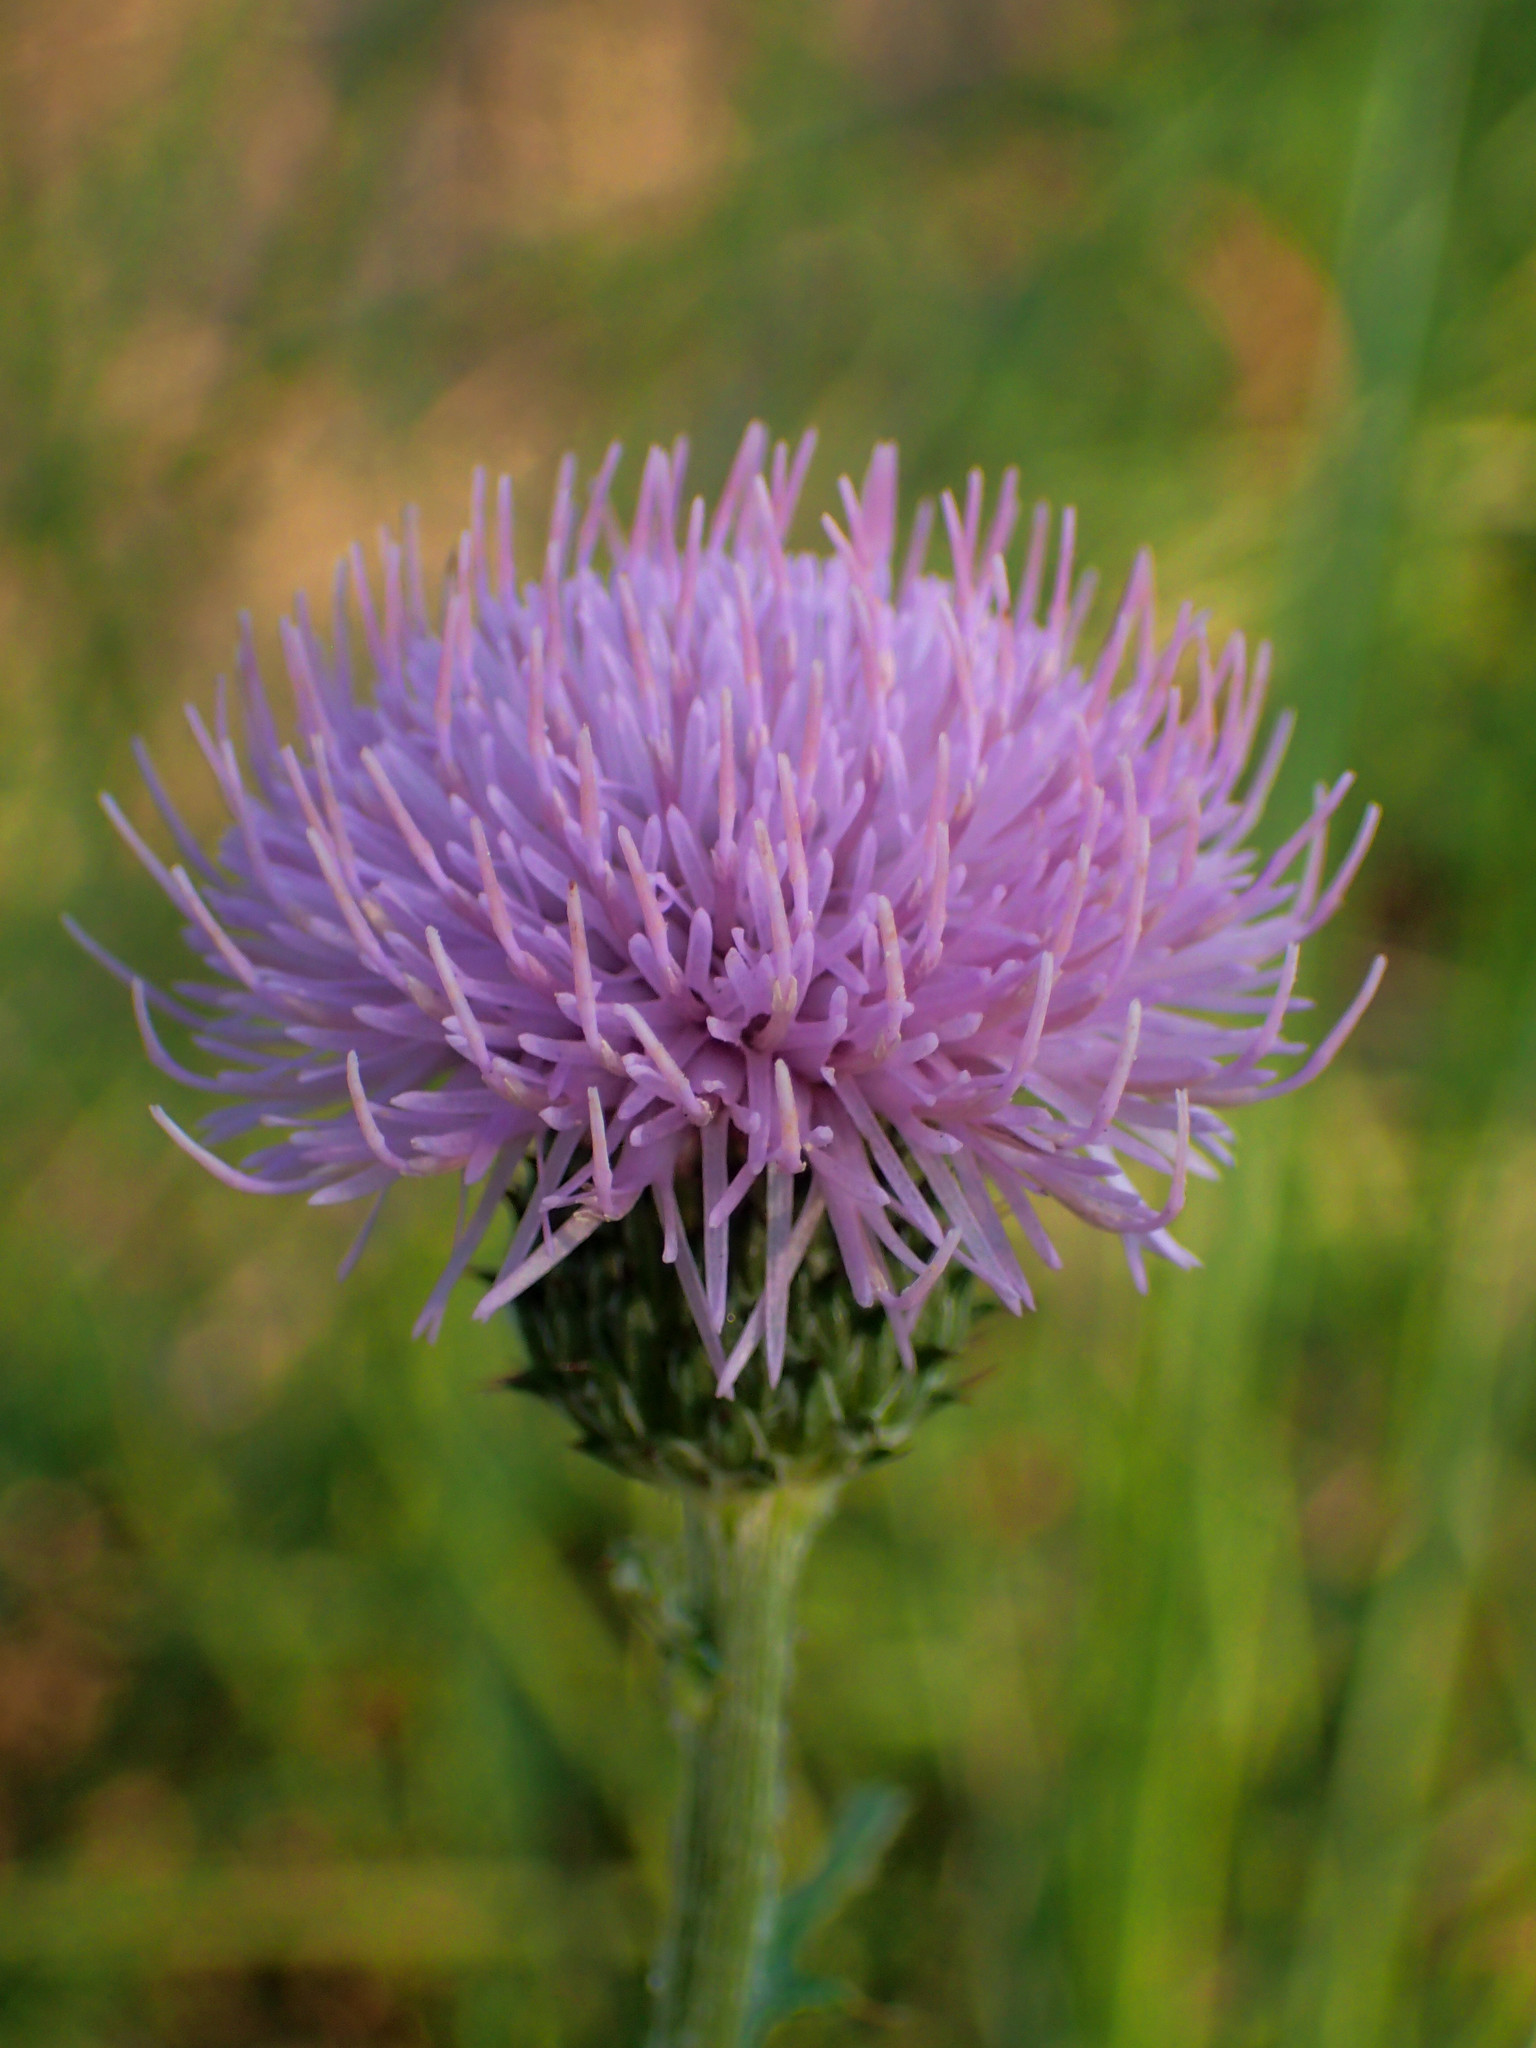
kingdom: Plantae
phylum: Tracheophyta
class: Magnoliopsida
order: Asterales
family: Asteraceae
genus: Cirsium
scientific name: Cirsium lineare
